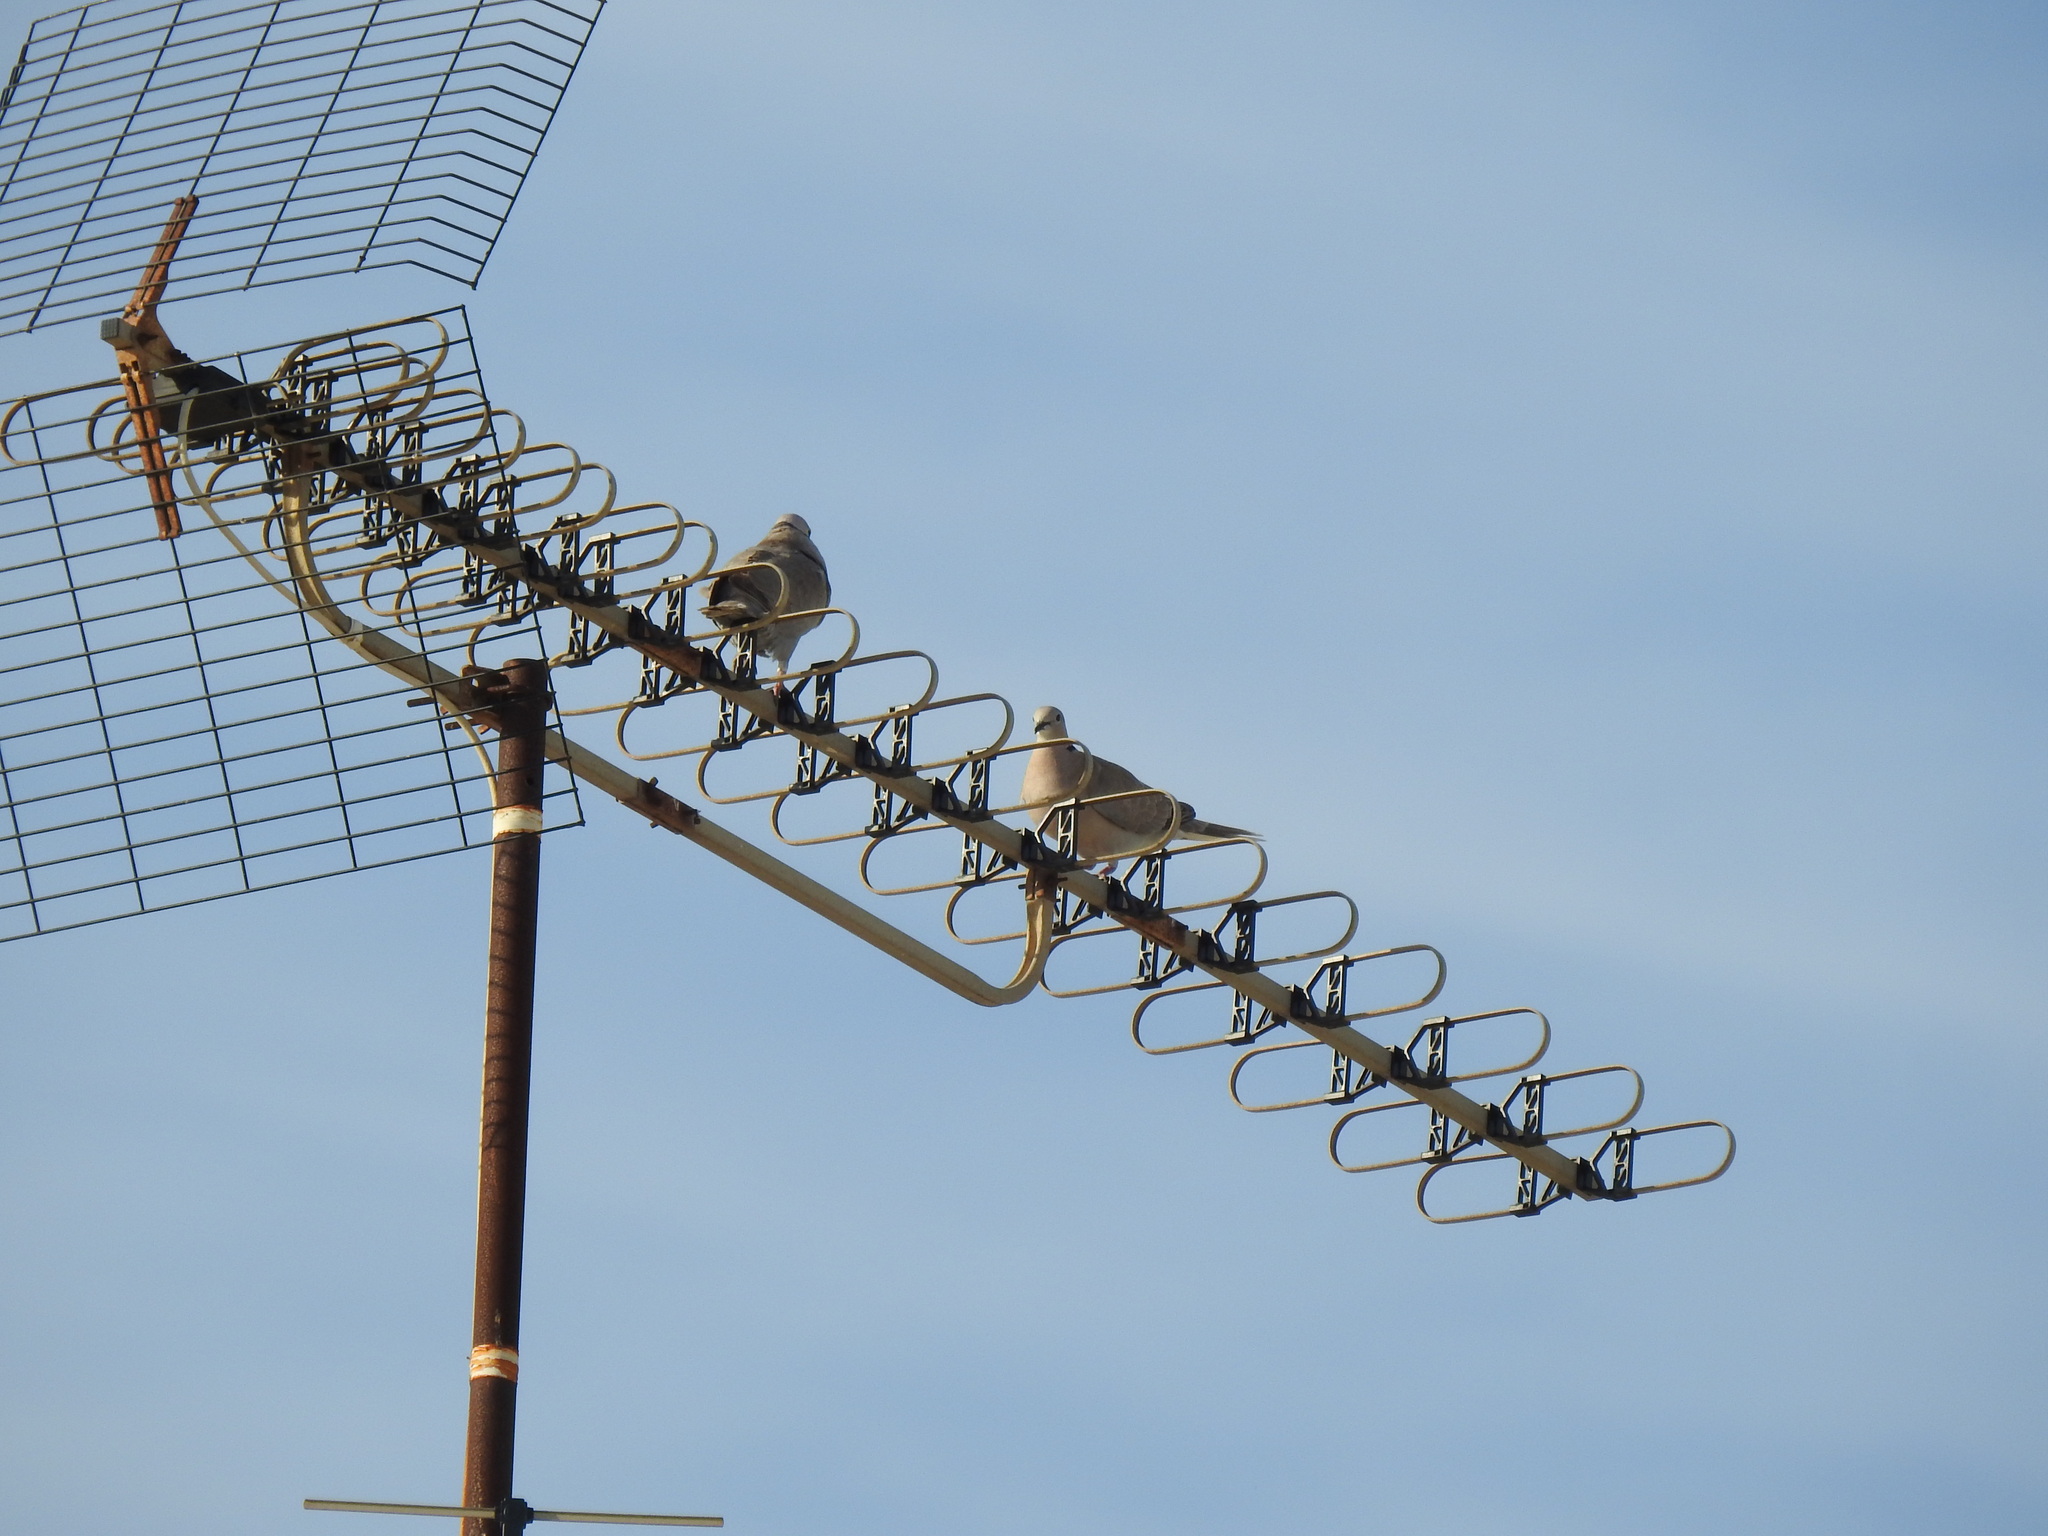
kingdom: Animalia
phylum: Chordata
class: Aves
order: Columbiformes
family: Columbidae
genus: Streptopelia
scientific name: Streptopelia decaocto
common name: Eurasian collared dove
